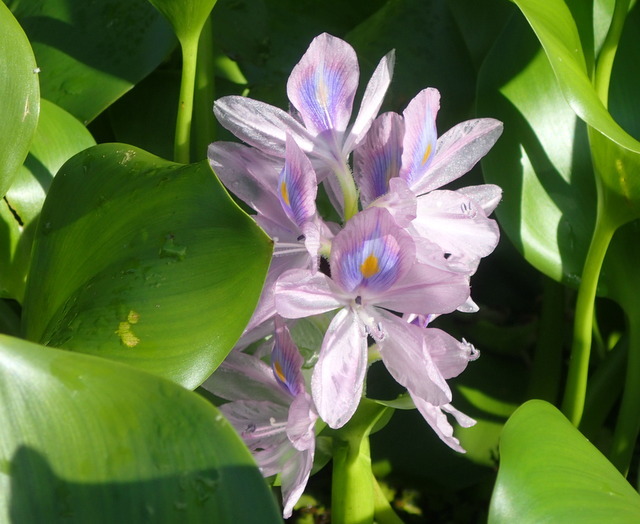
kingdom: Plantae
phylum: Tracheophyta
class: Liliopsida
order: Commelinales
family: Pontederiaceae
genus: Pontederia
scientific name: Pontederia crassipes
